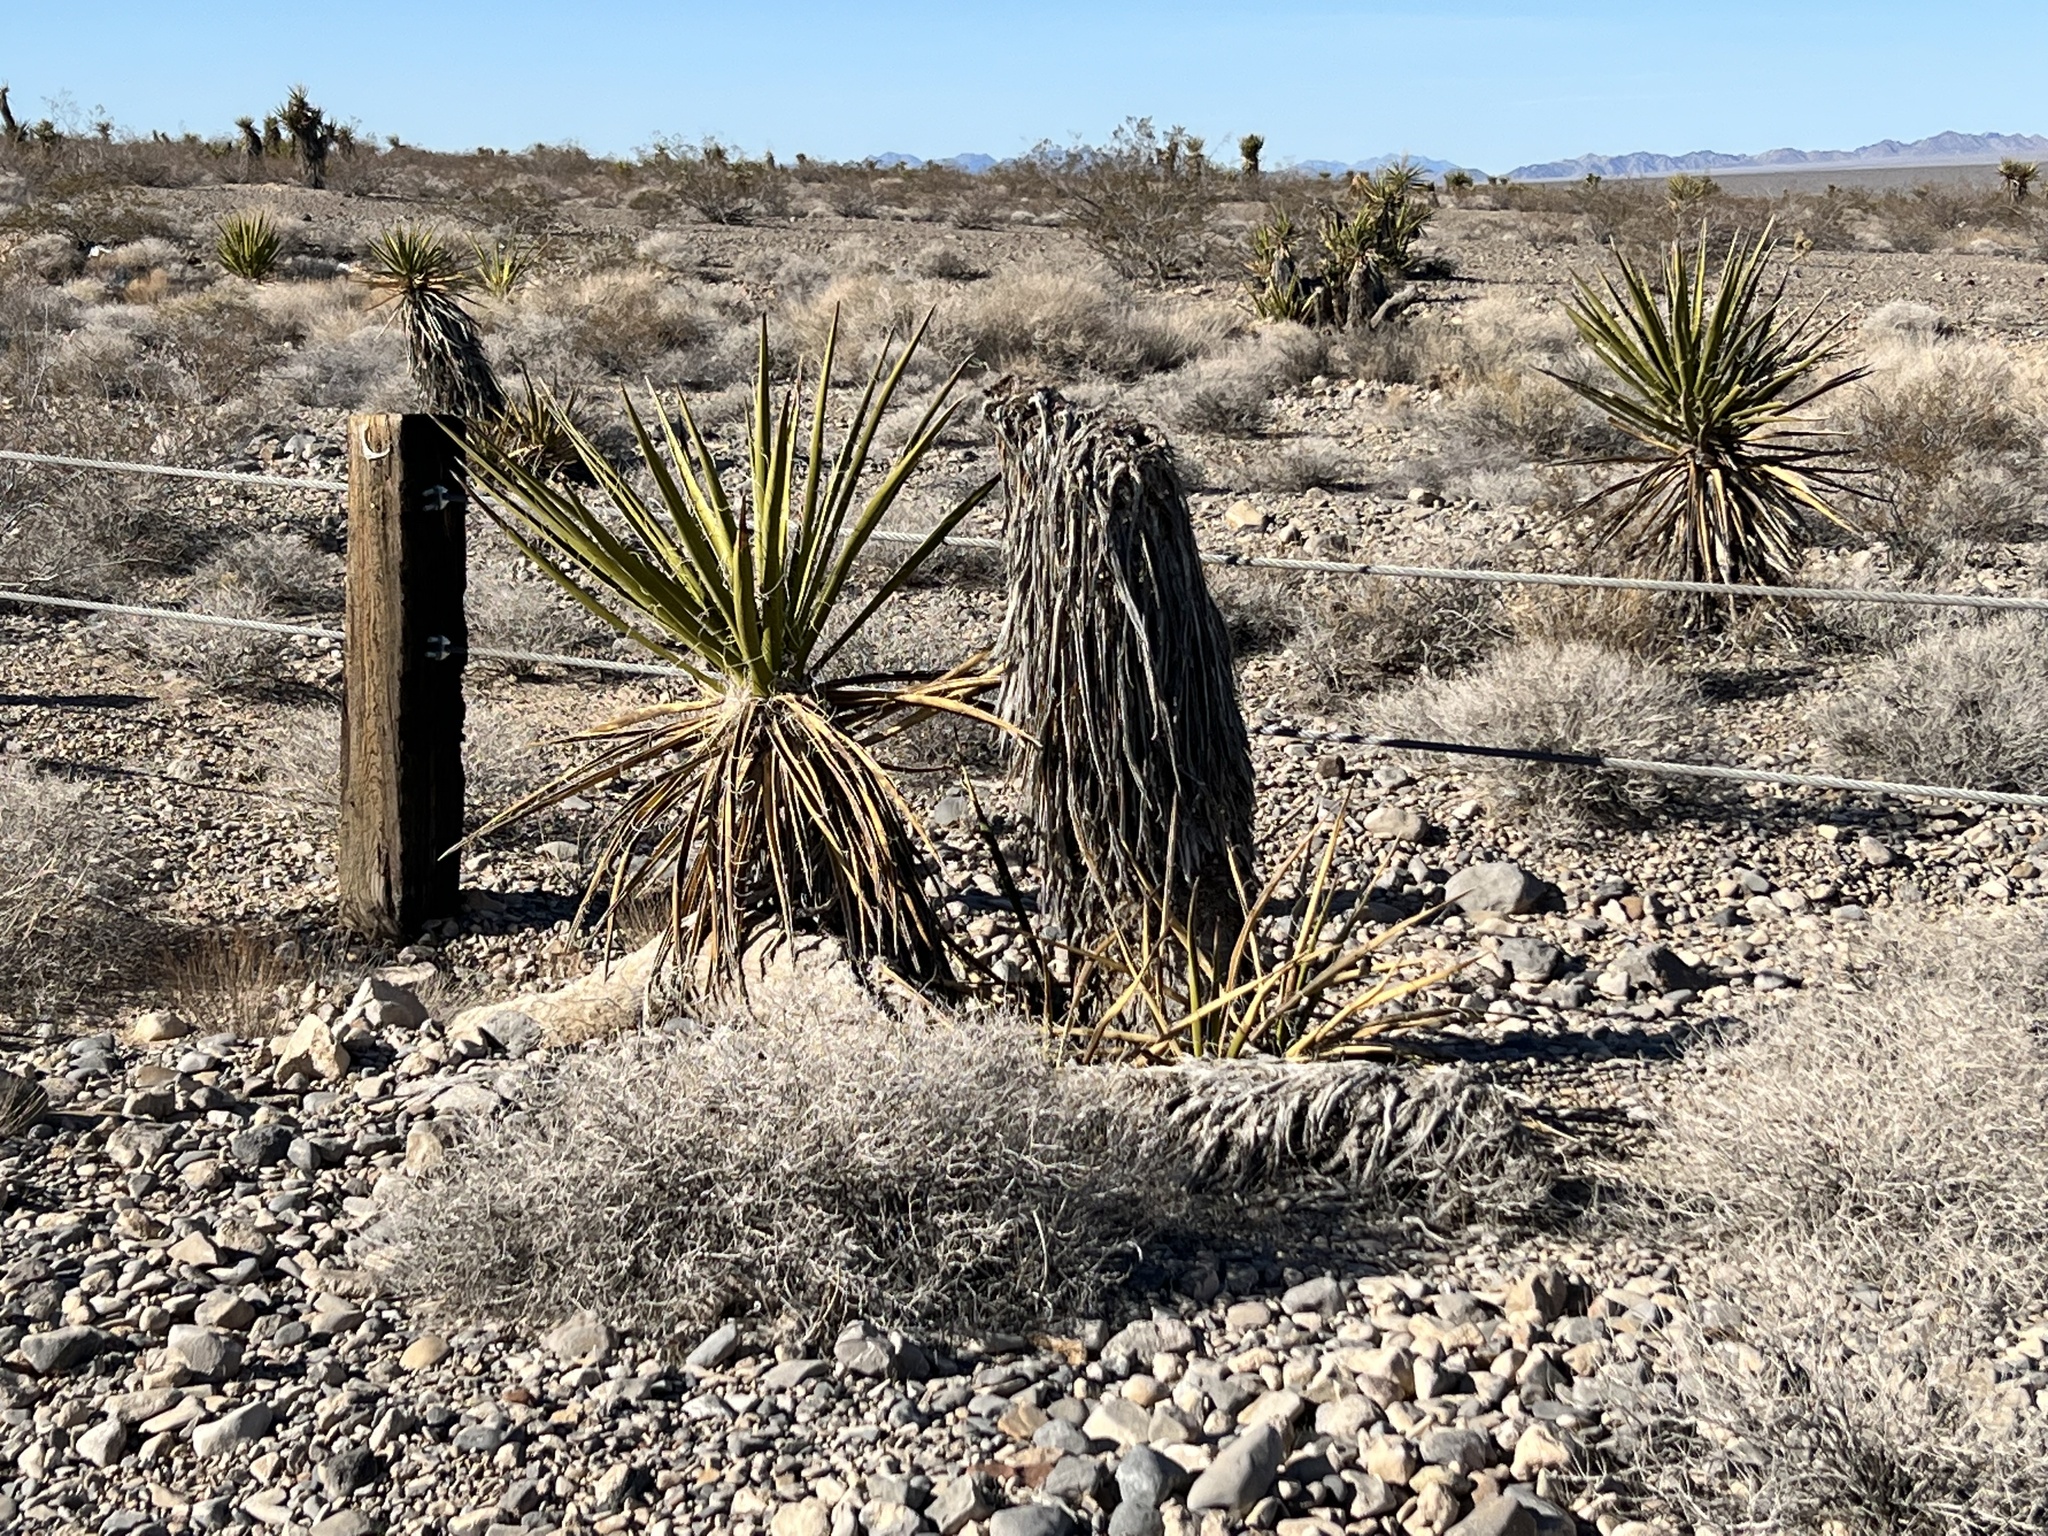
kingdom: Plantae
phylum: Tracheophyta
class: Liliopsida
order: Asparagales
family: Asparagaceae
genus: Yucca
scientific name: Yucca schidigera
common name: Mojave yucca
